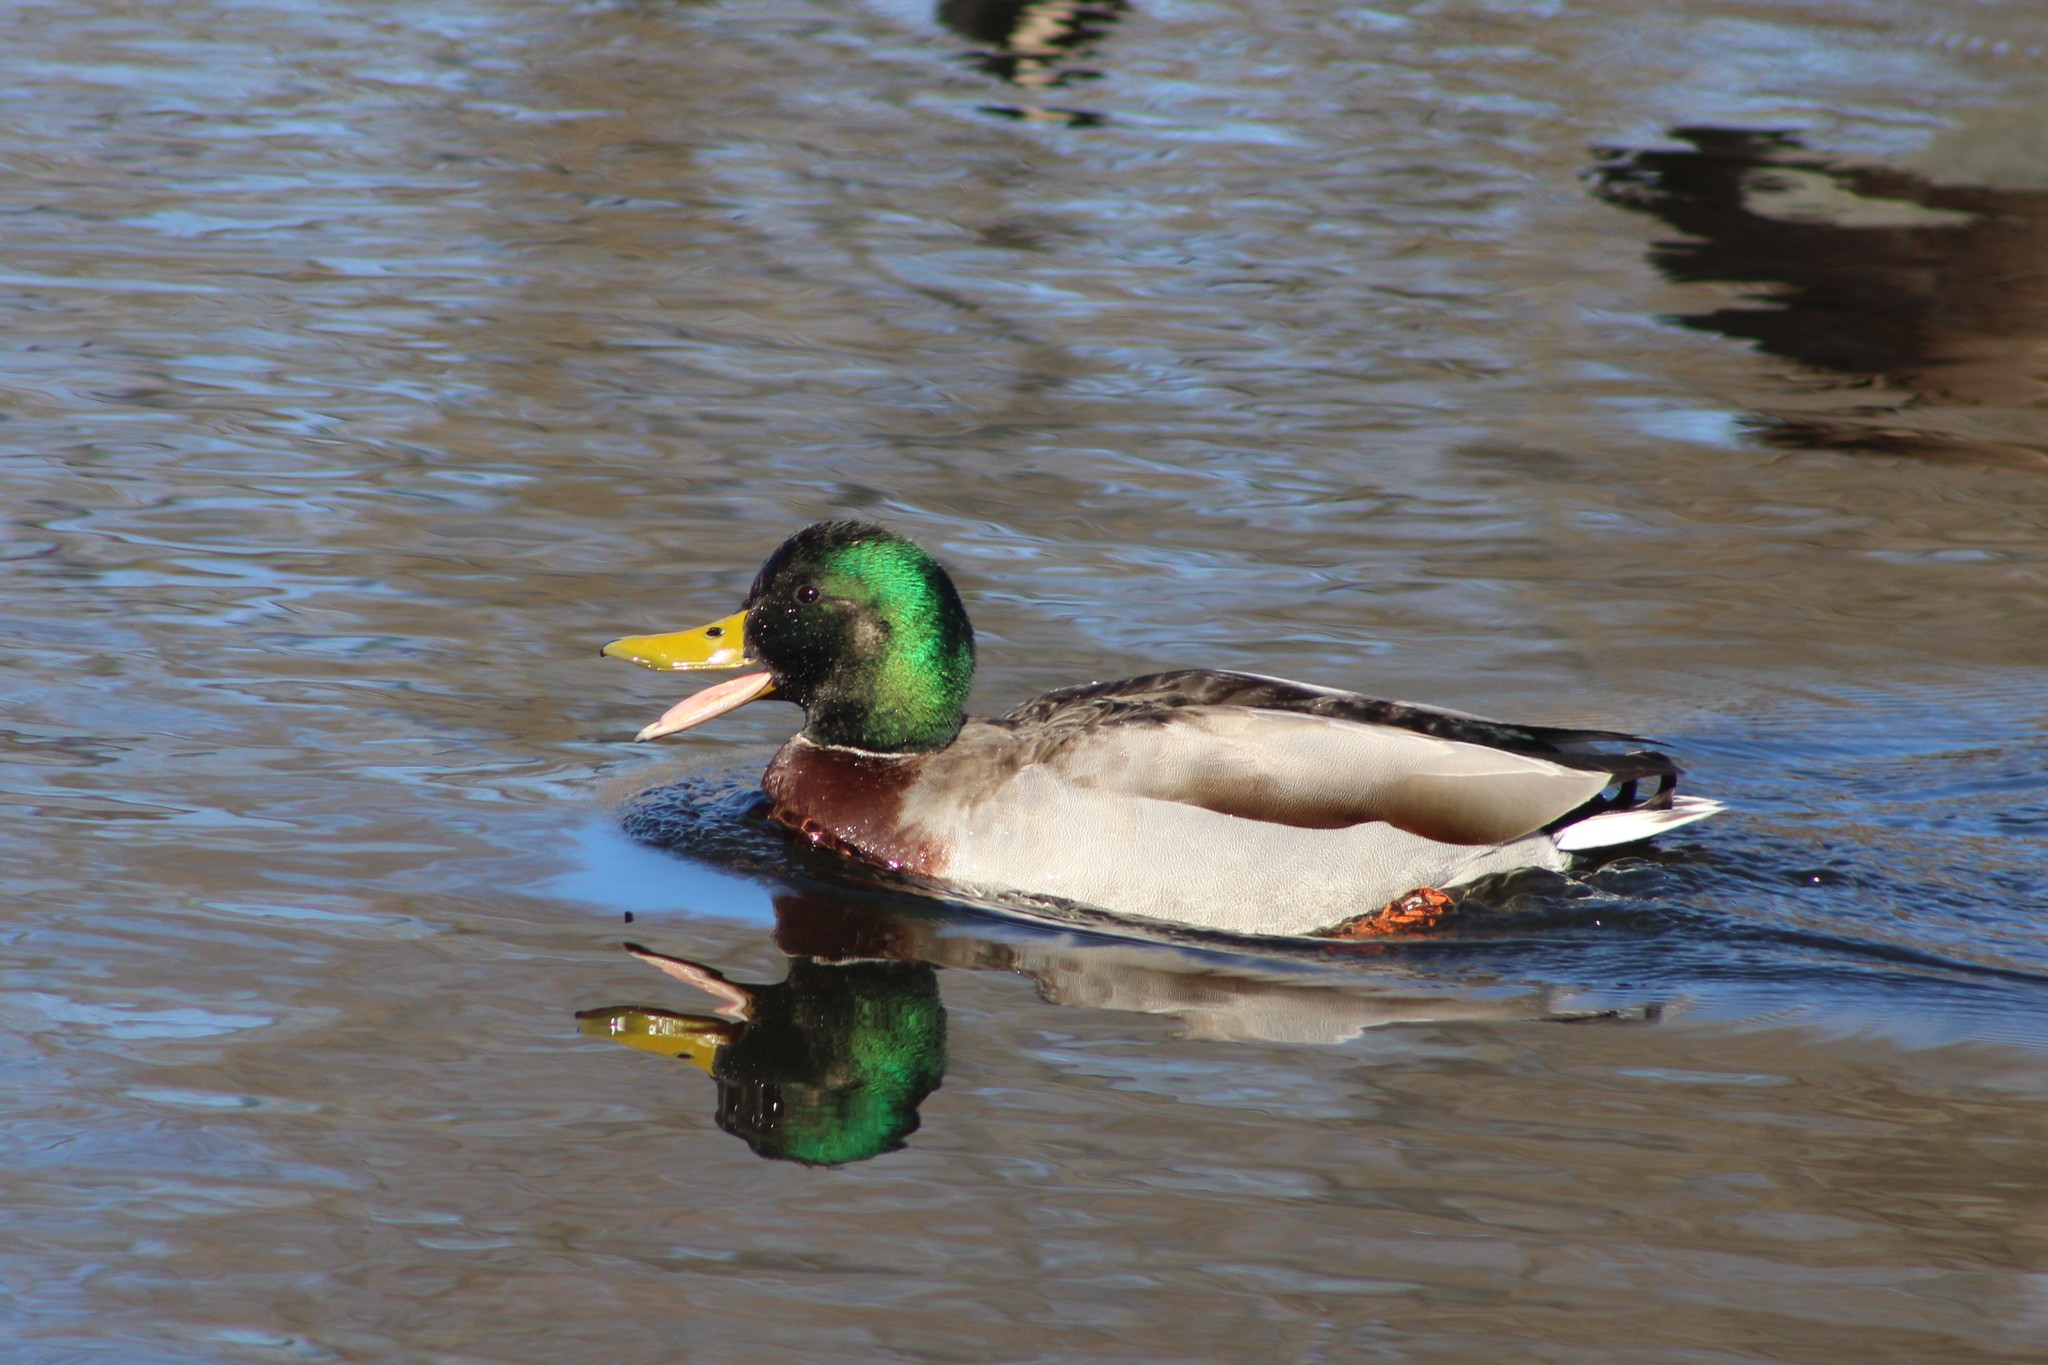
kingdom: Animalia
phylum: Chordata
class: Aves
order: Anseriformes
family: Anatidae
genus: Anas
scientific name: Anas platyrhynchos
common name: Mallard
